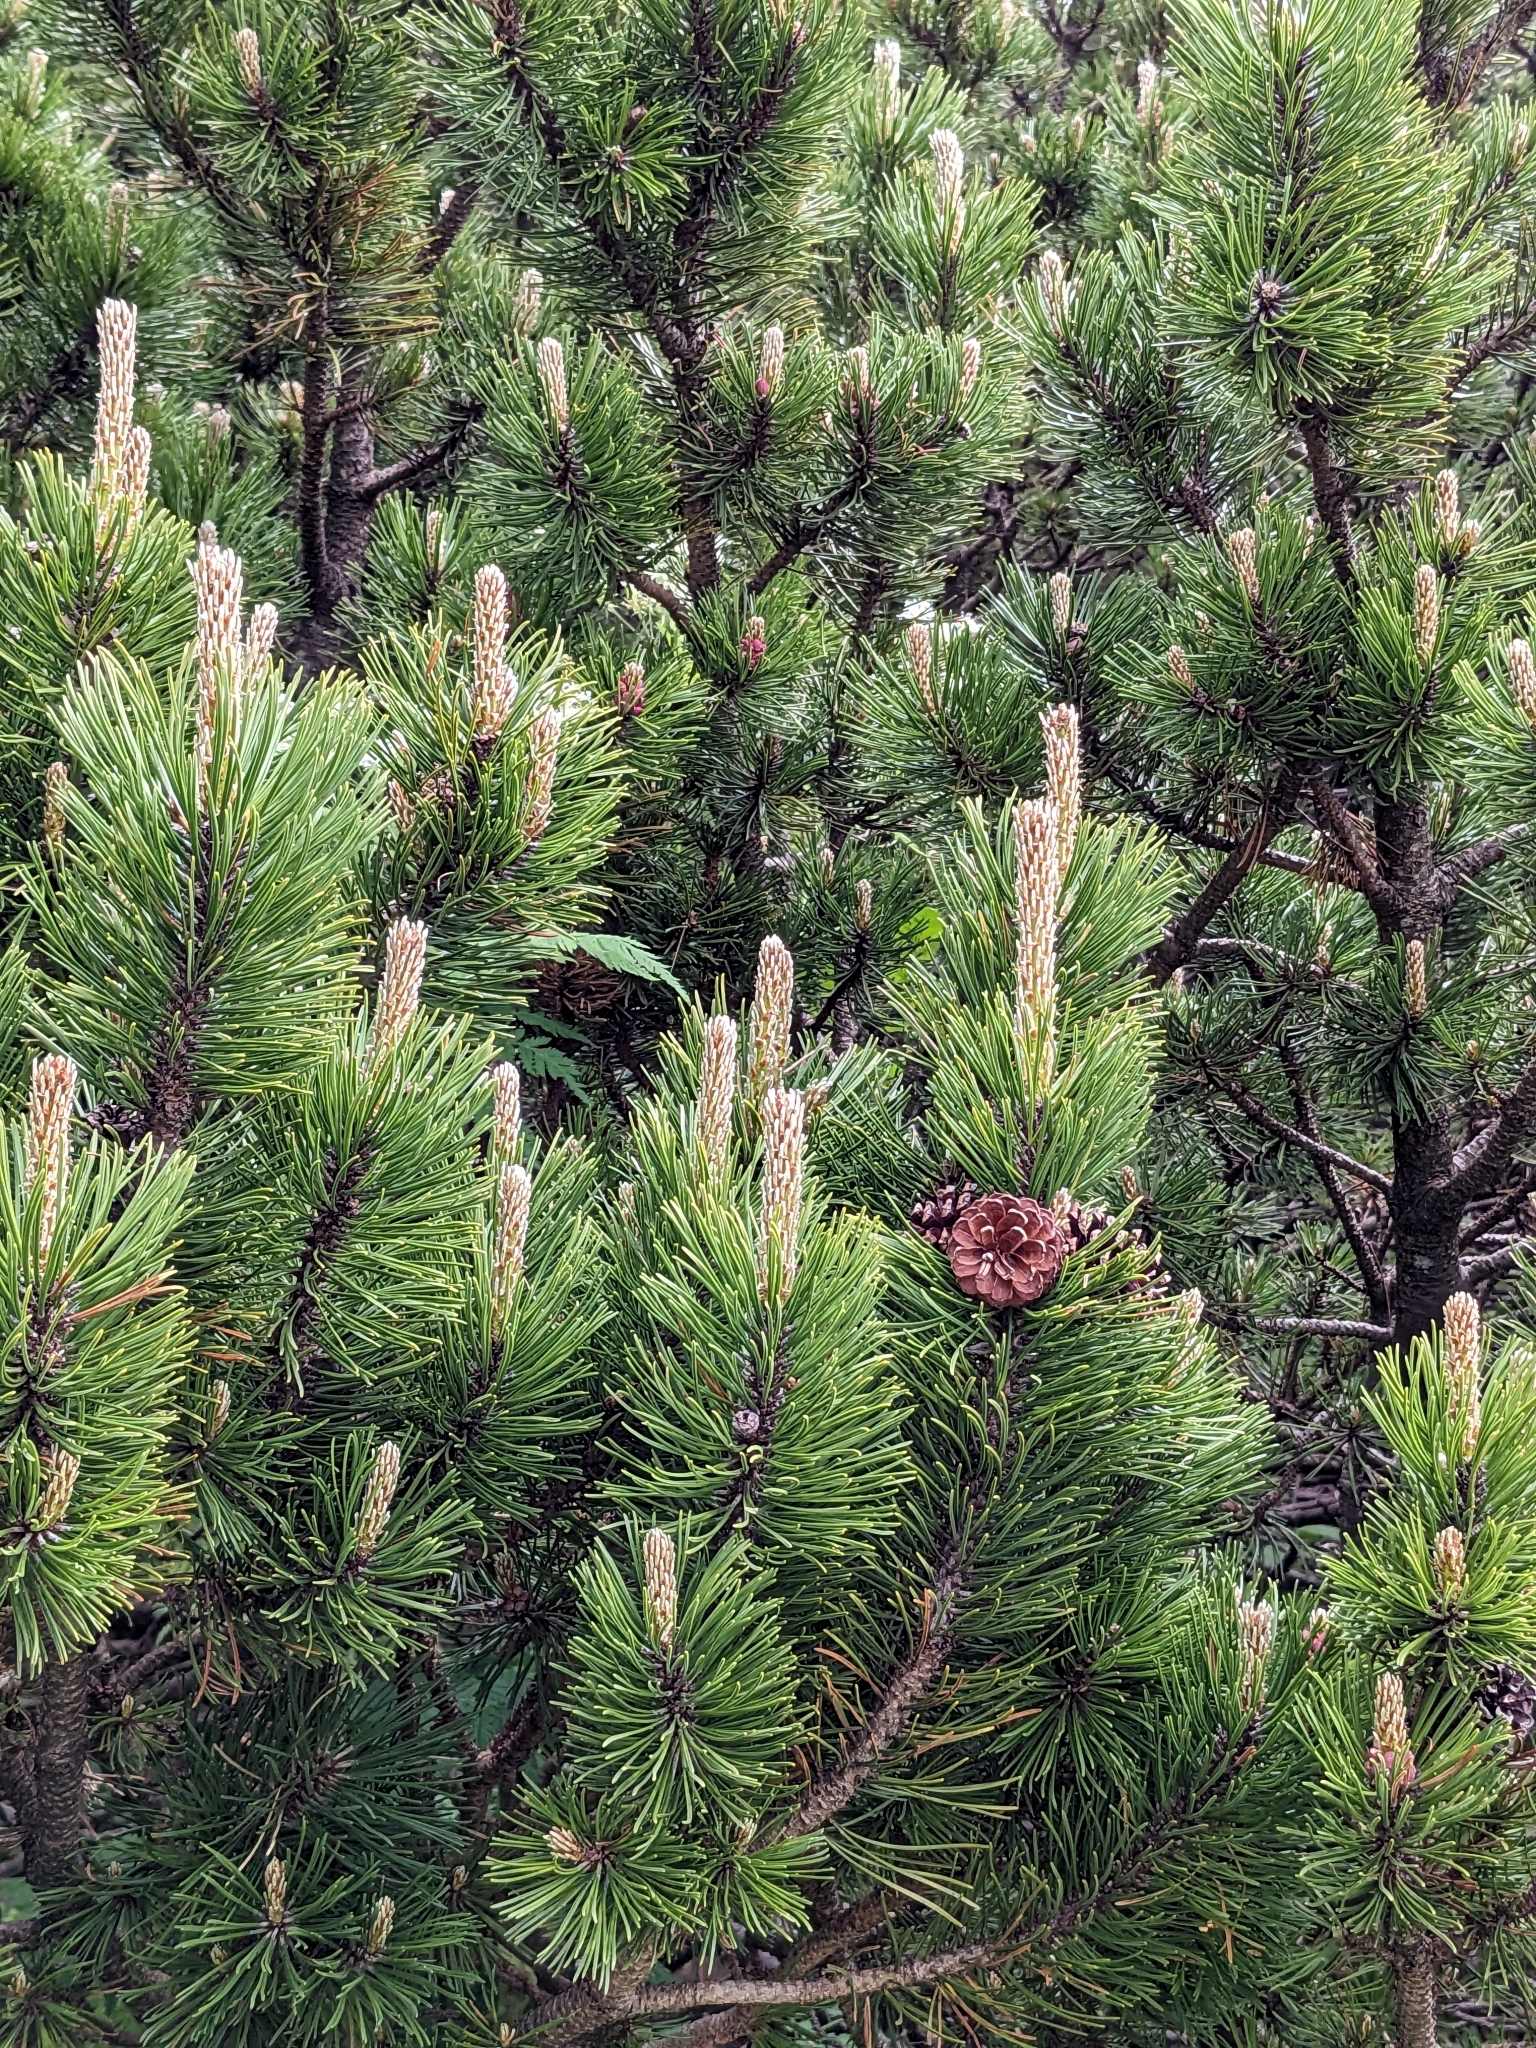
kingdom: Plantae
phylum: Tracheophyta
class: Pinopsida
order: Pinales
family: Pinaceae
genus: Pinus
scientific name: Pinus mugo
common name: Mugo pine
